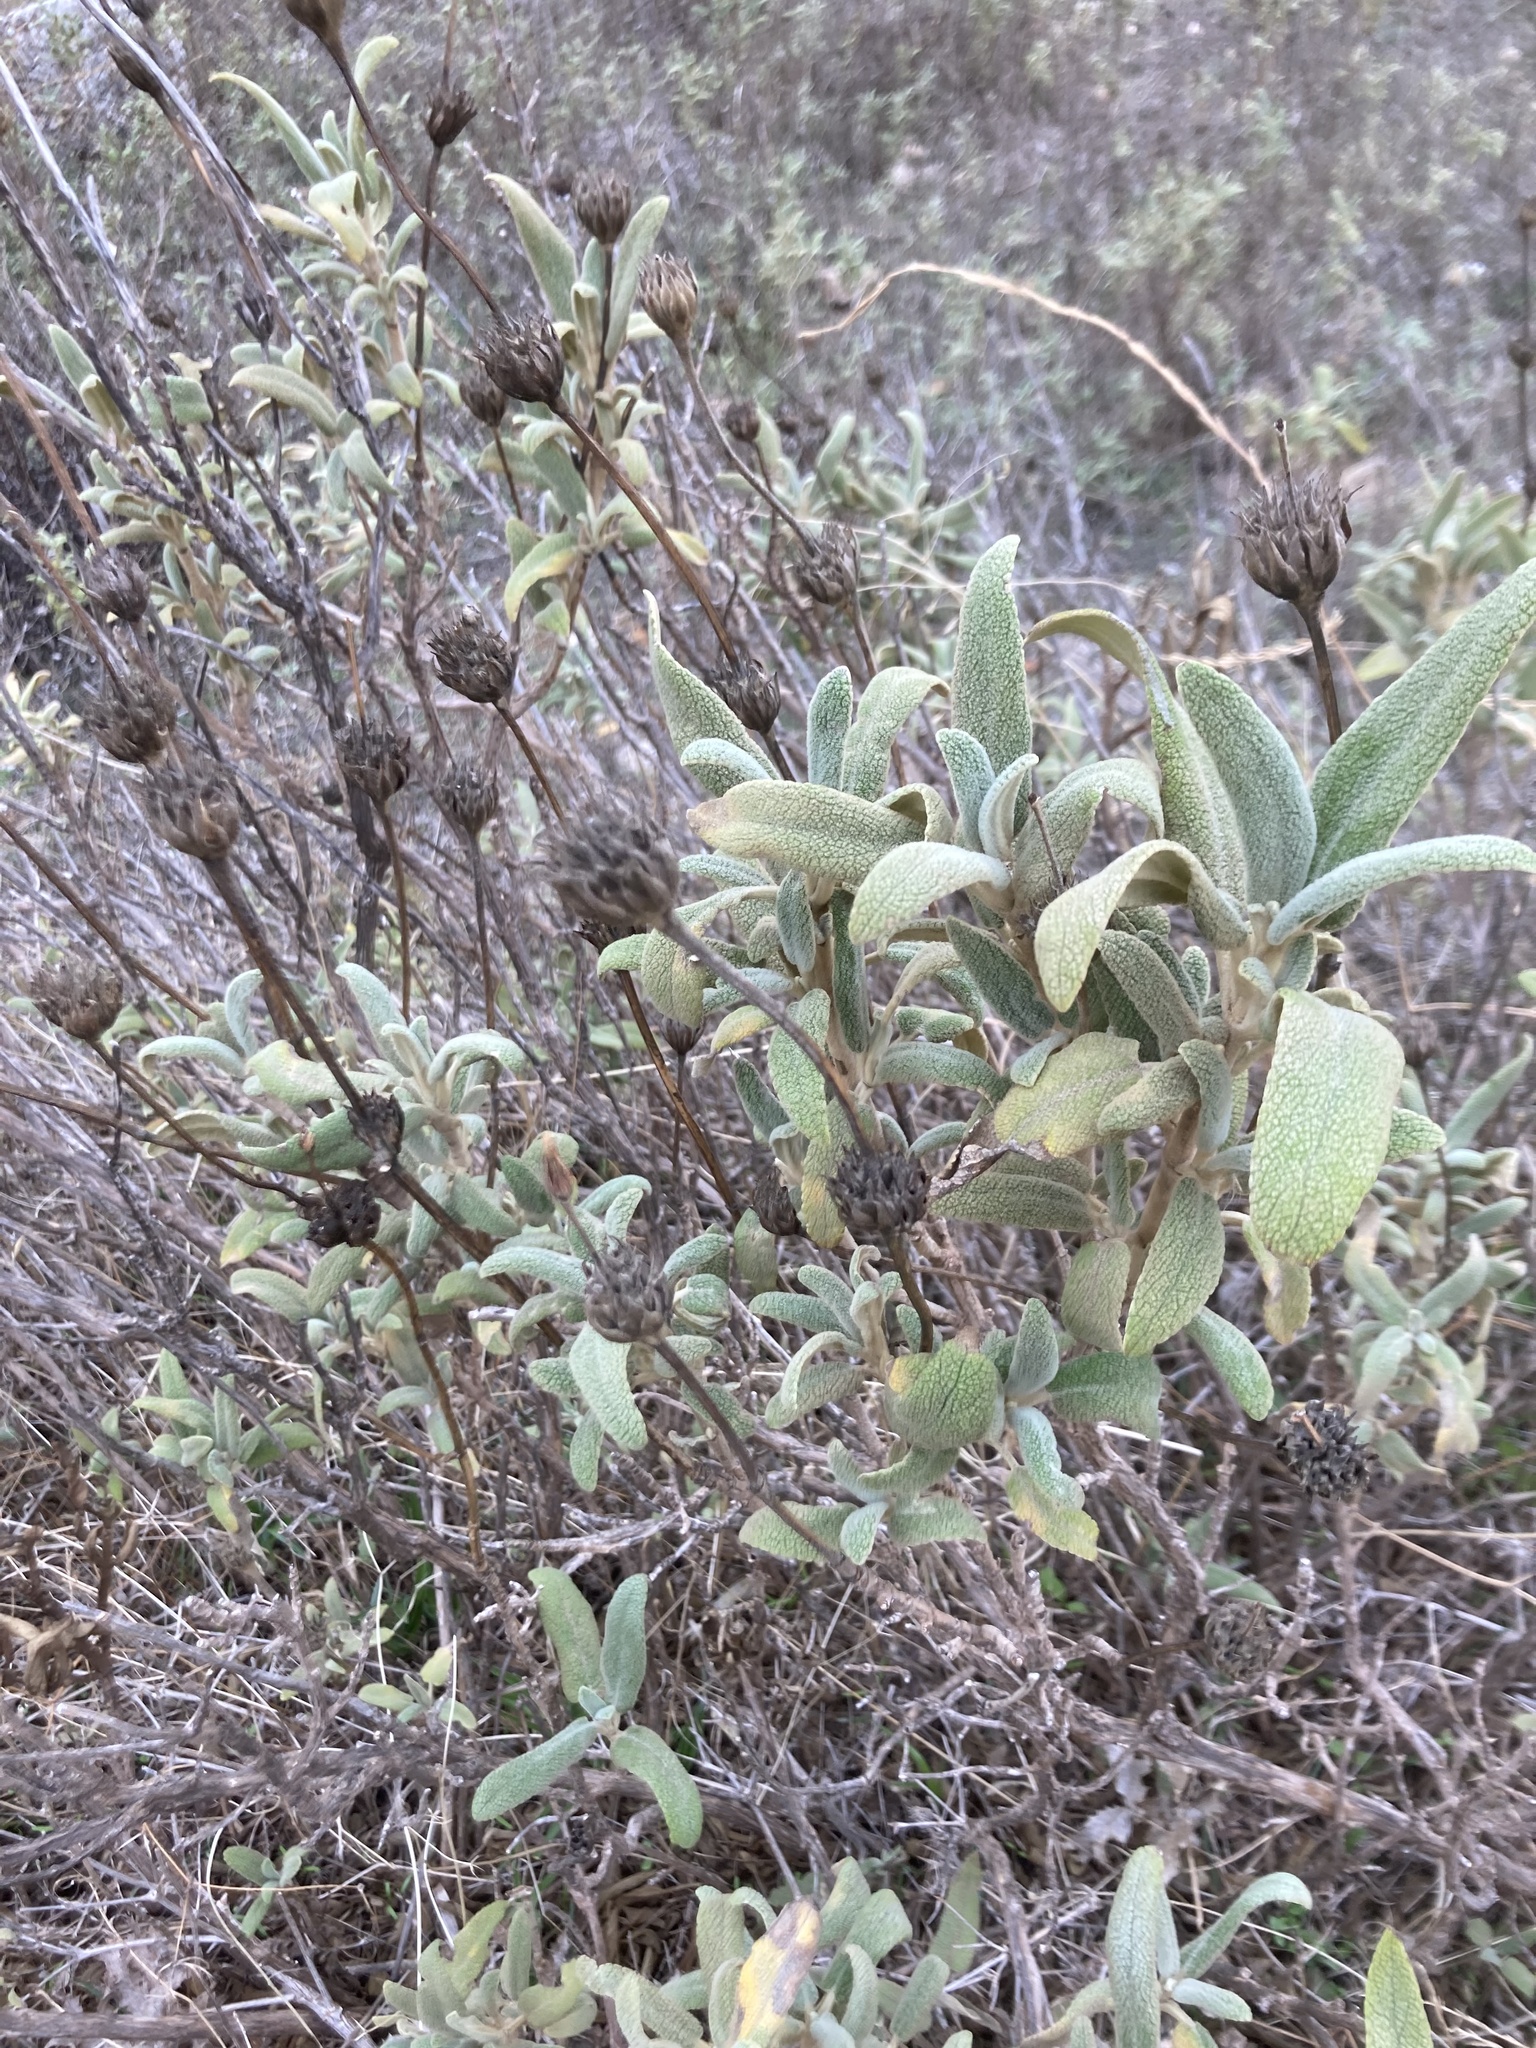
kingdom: Plantae
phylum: Tracheophyta
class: Magnoliopsida
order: Lamiales
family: Lamiaceae
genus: Phlomis
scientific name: Phlomis purpurea
